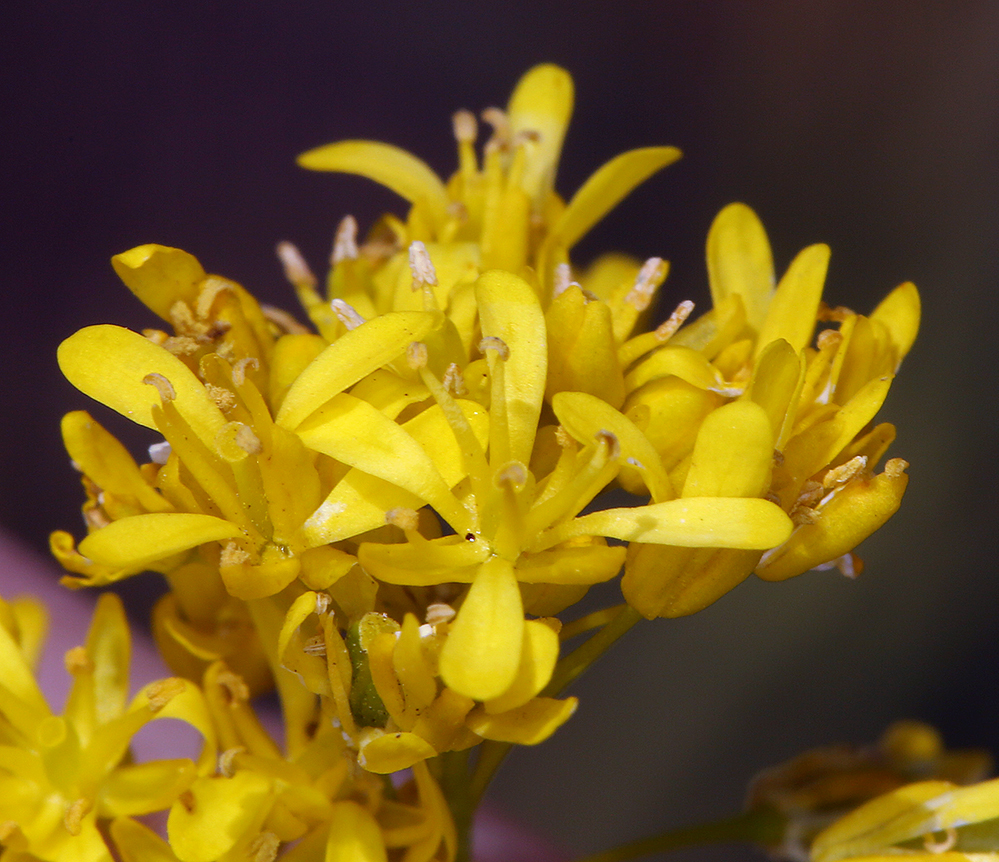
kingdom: Plantae
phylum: Tracheophyta
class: Magnoliopsida
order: Brassicales
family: Brassicaceae
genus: Isatis
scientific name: Isatis tinctoria
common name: Woad
